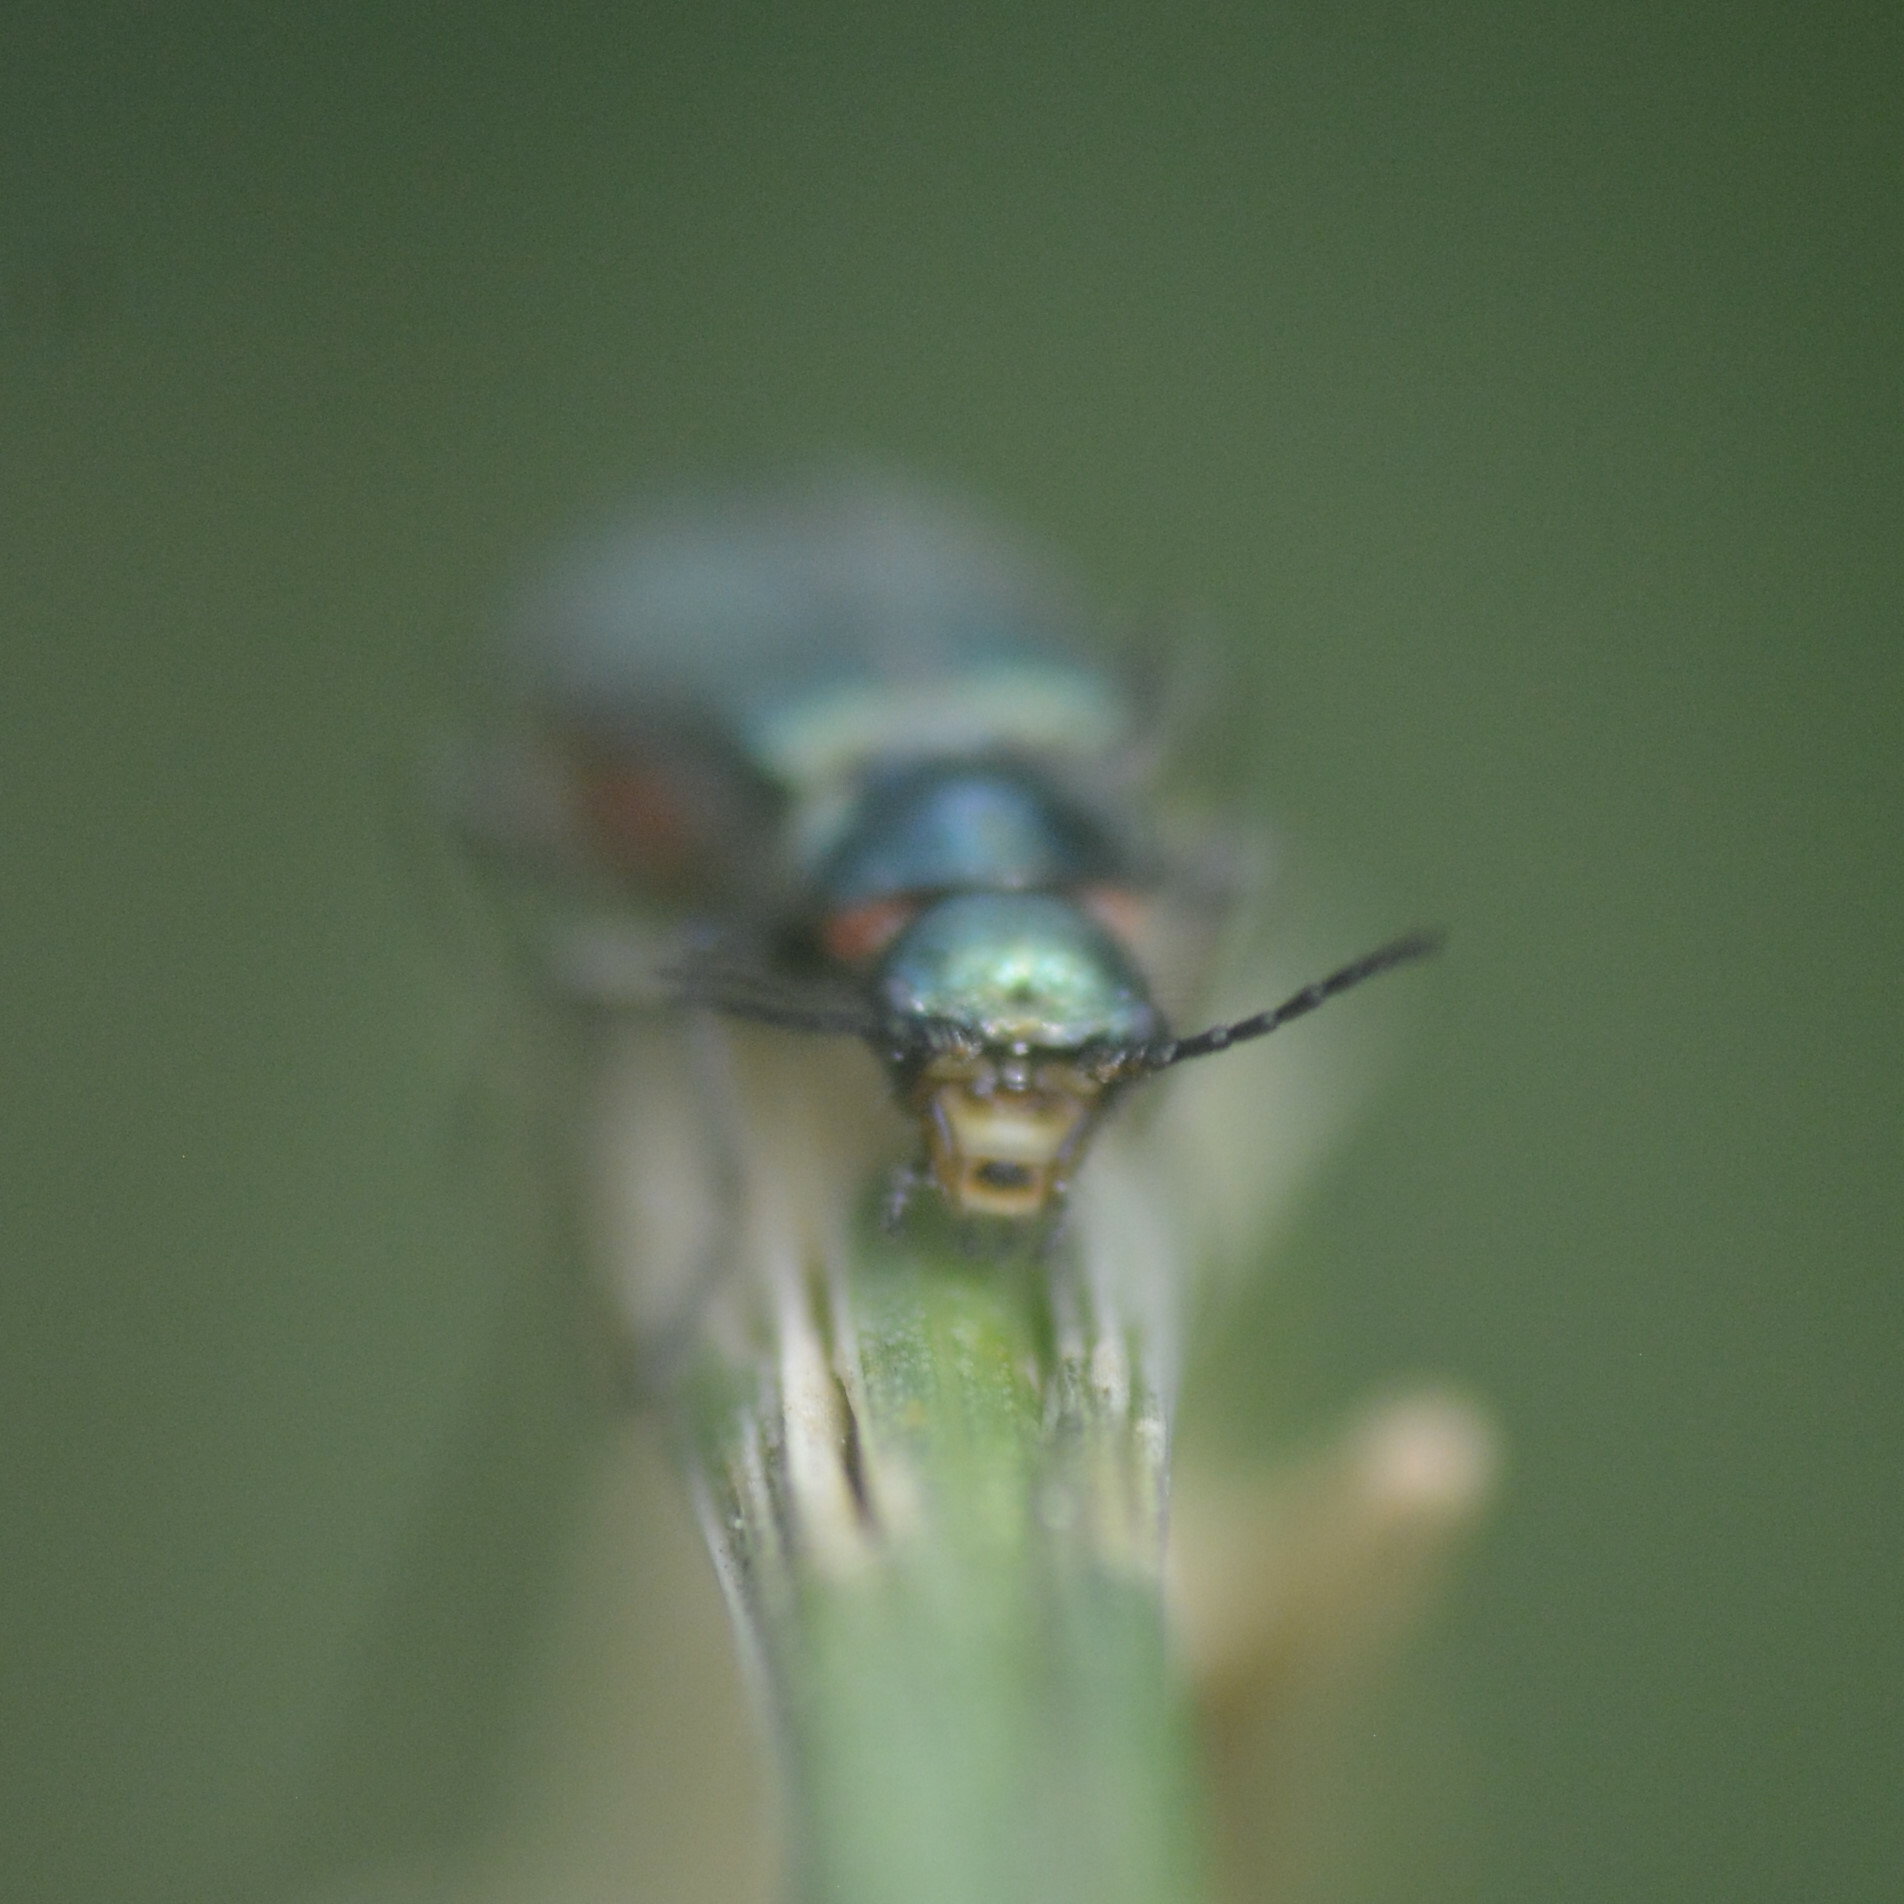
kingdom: Animalia
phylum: Arthropoda
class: Insecta
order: Coleoptera
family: Melyridae
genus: Malachius
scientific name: Malachius bipustulatus
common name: Malachite beetle
